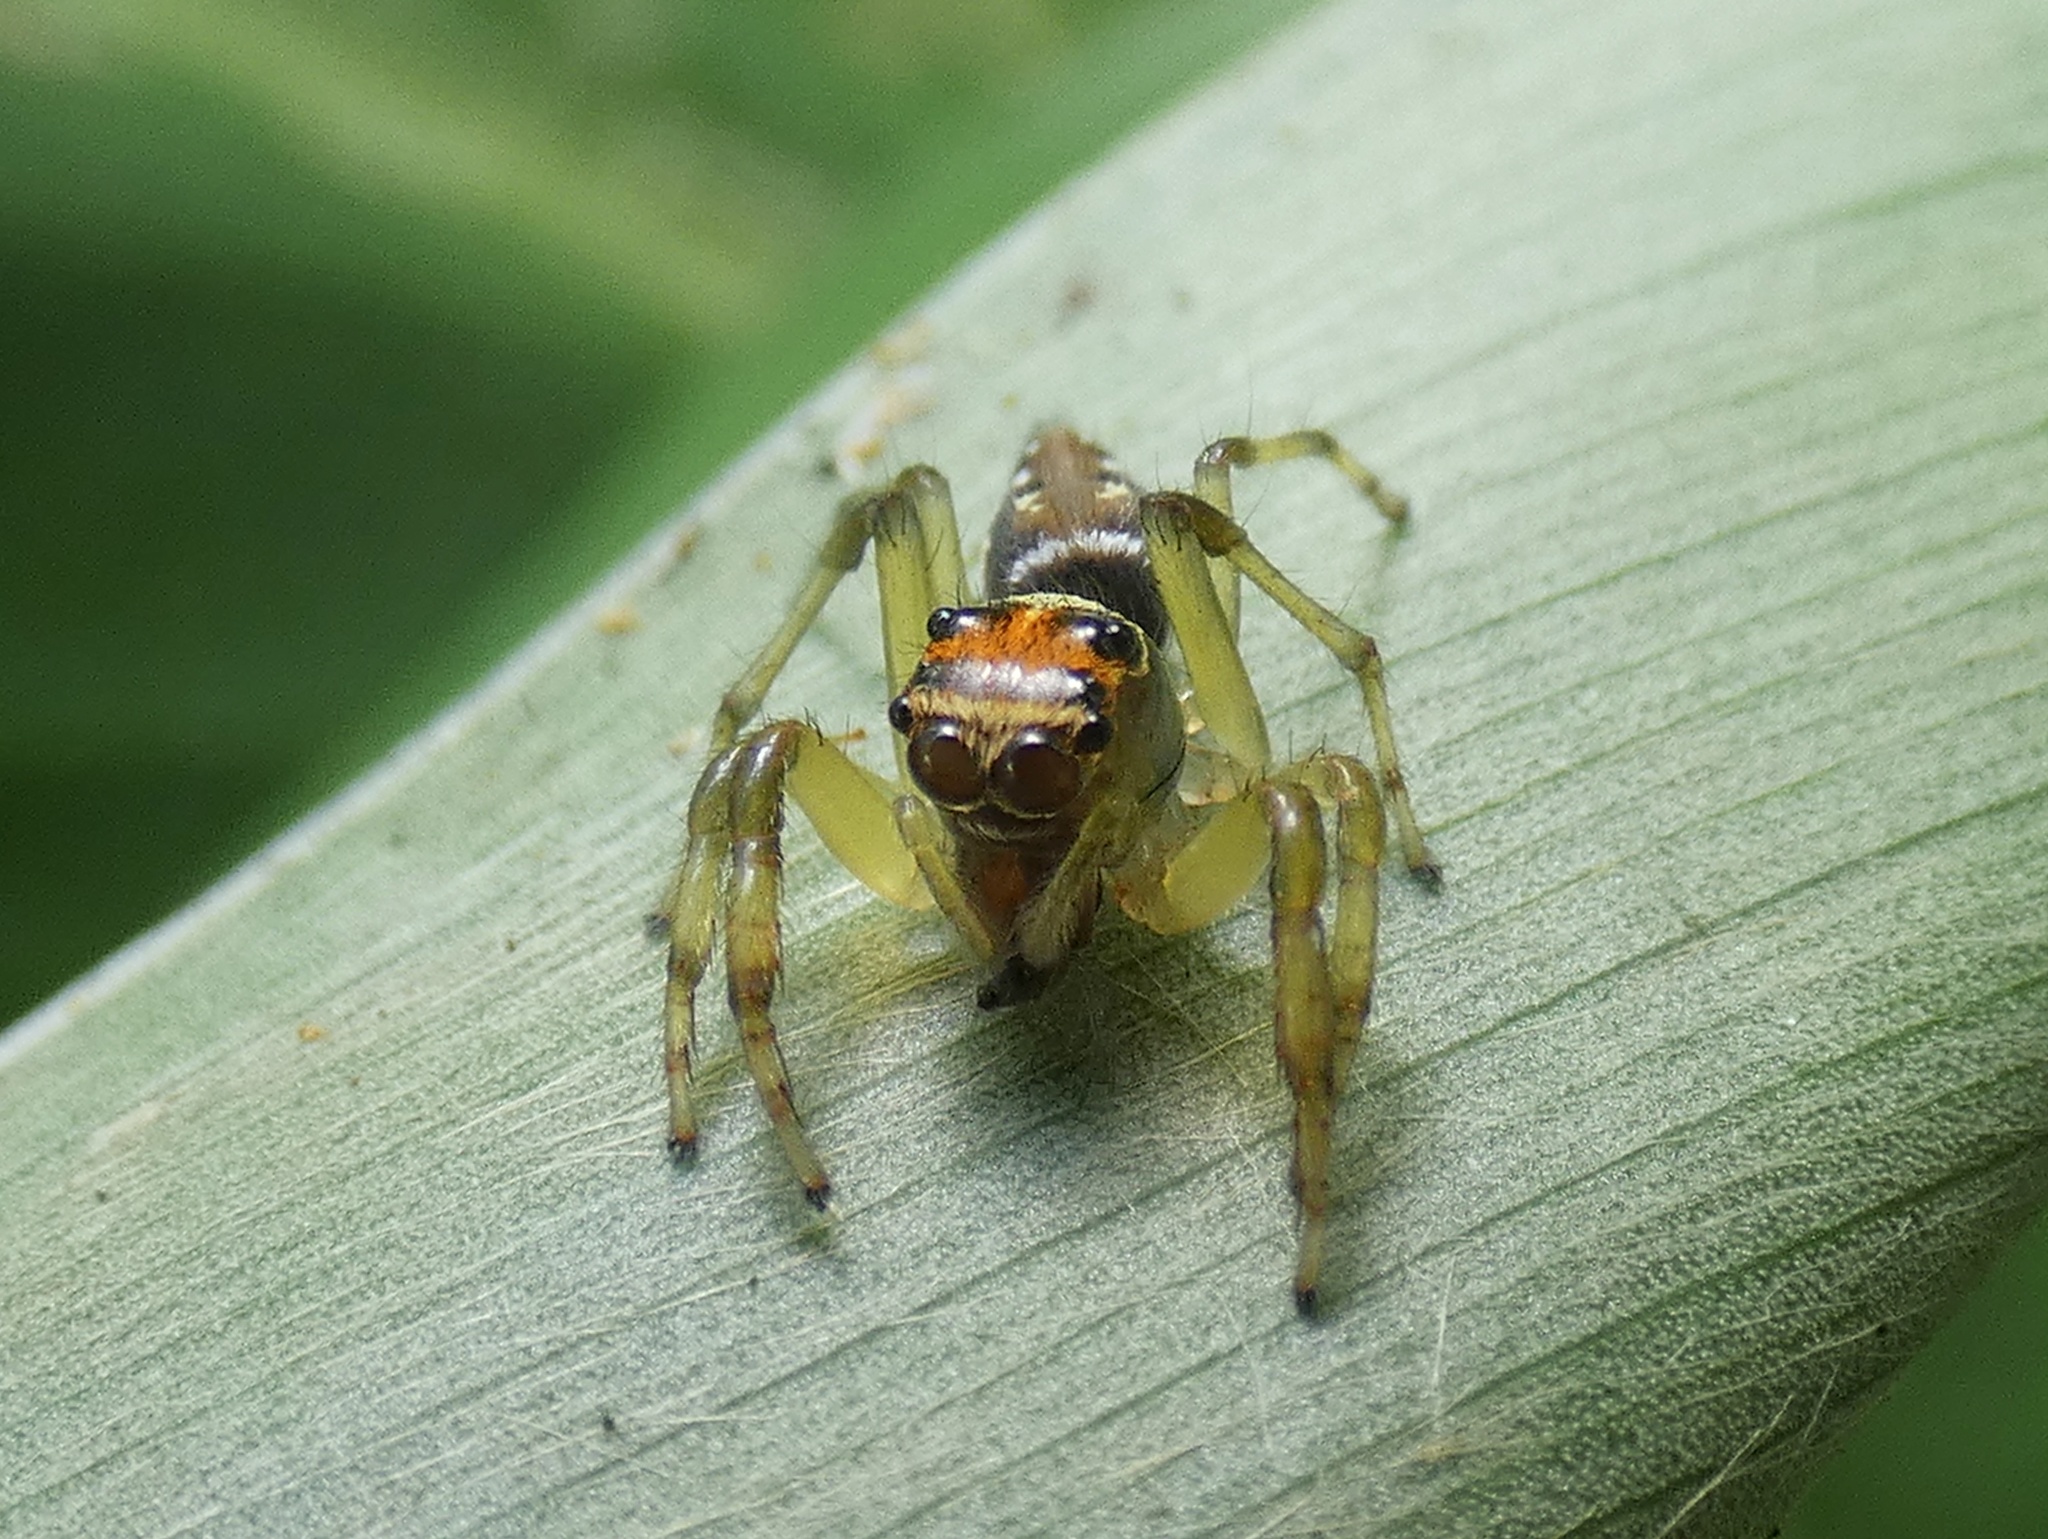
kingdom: Animalia
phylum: Arthropoda
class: Arachnida
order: Araneae
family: Salticidae
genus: Hypaeus
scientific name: Hypaeus benignus
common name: Jumping spiders
